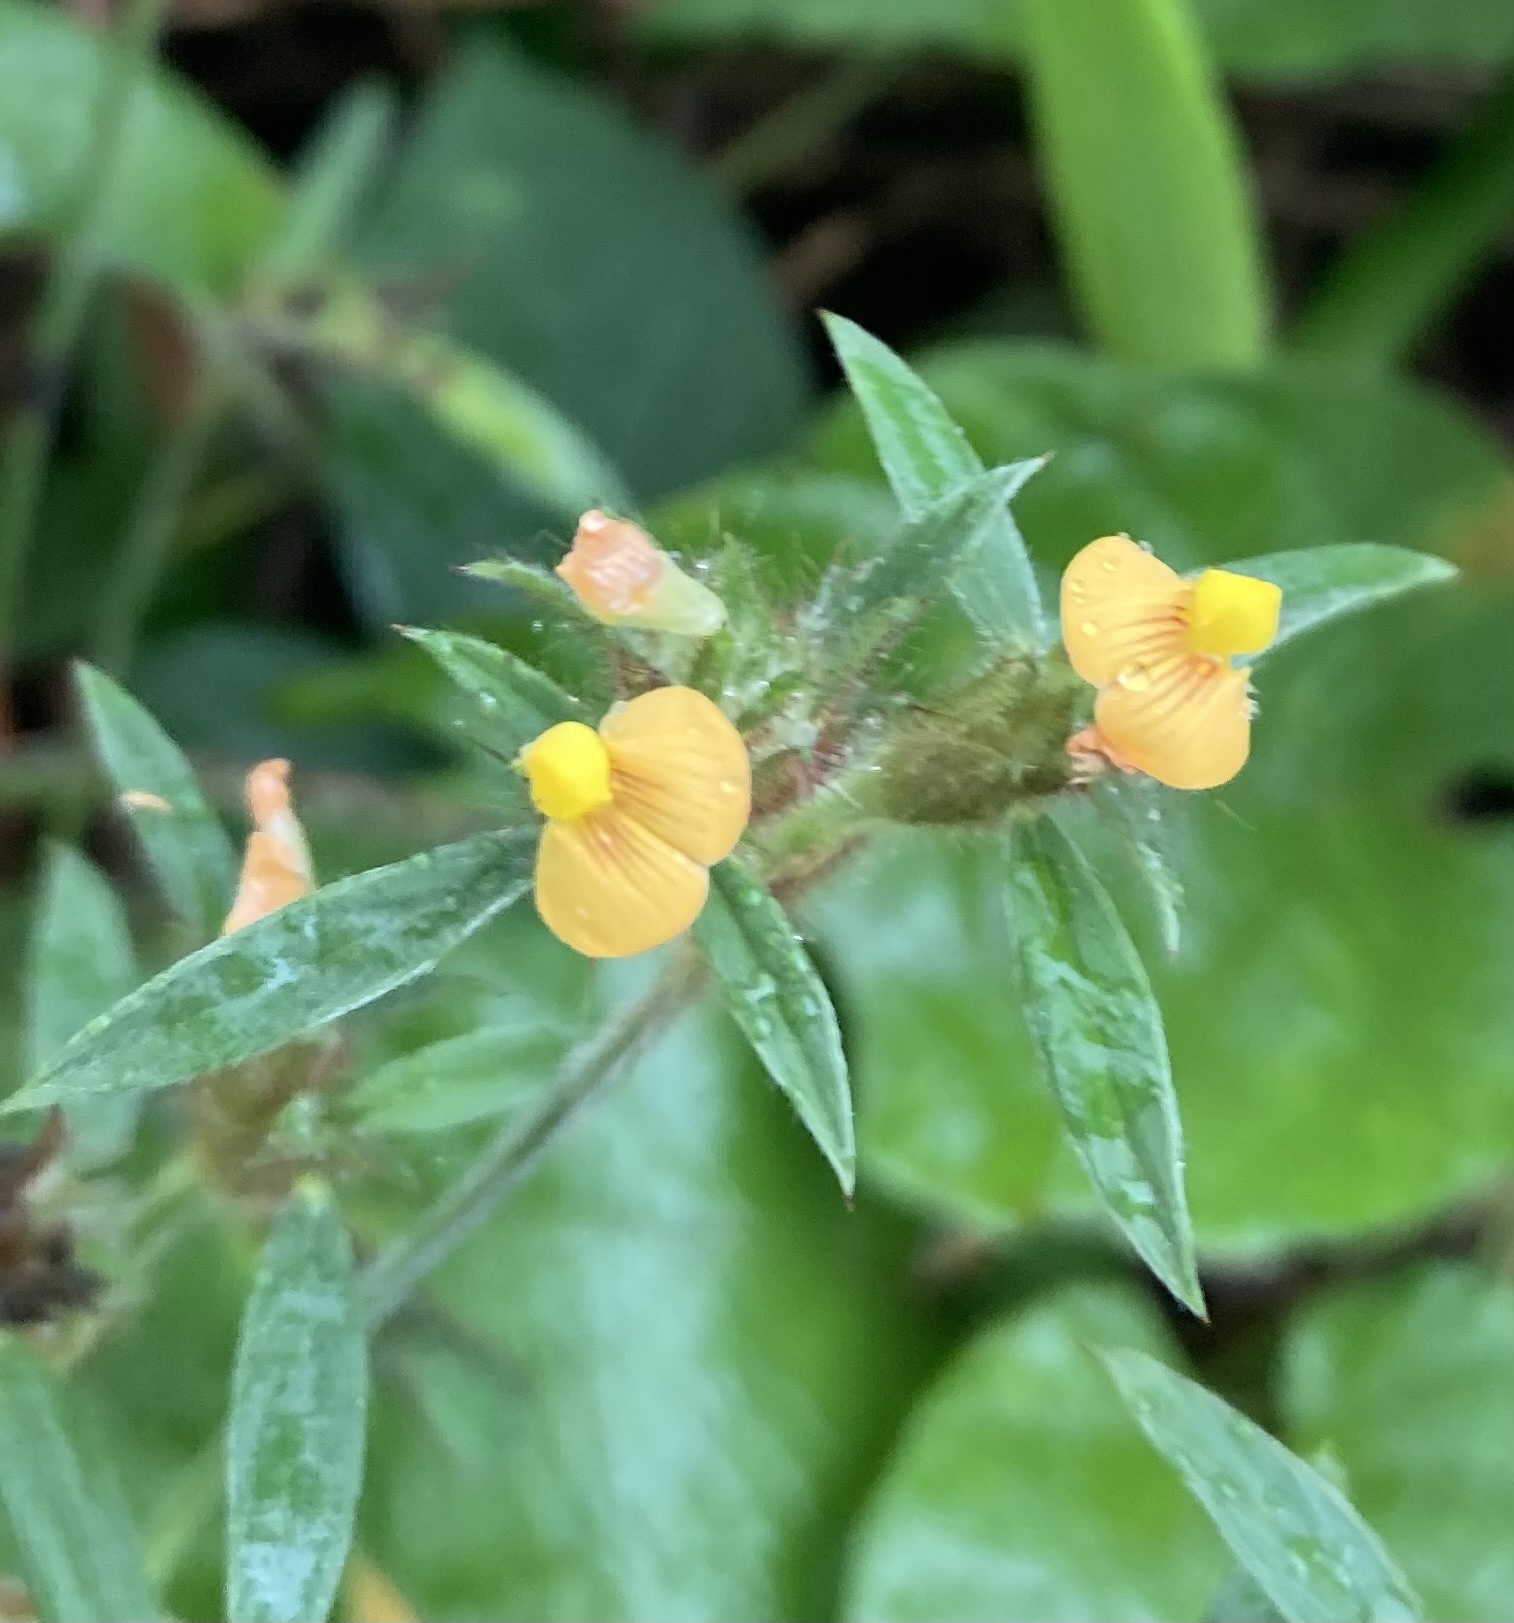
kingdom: Plantae
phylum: Tracheophyta
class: Magnoliopsida
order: Fabales
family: Fabaceae
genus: Stylosanthes
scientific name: Stylosanthes biflora
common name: Two-flower pencil-flower
